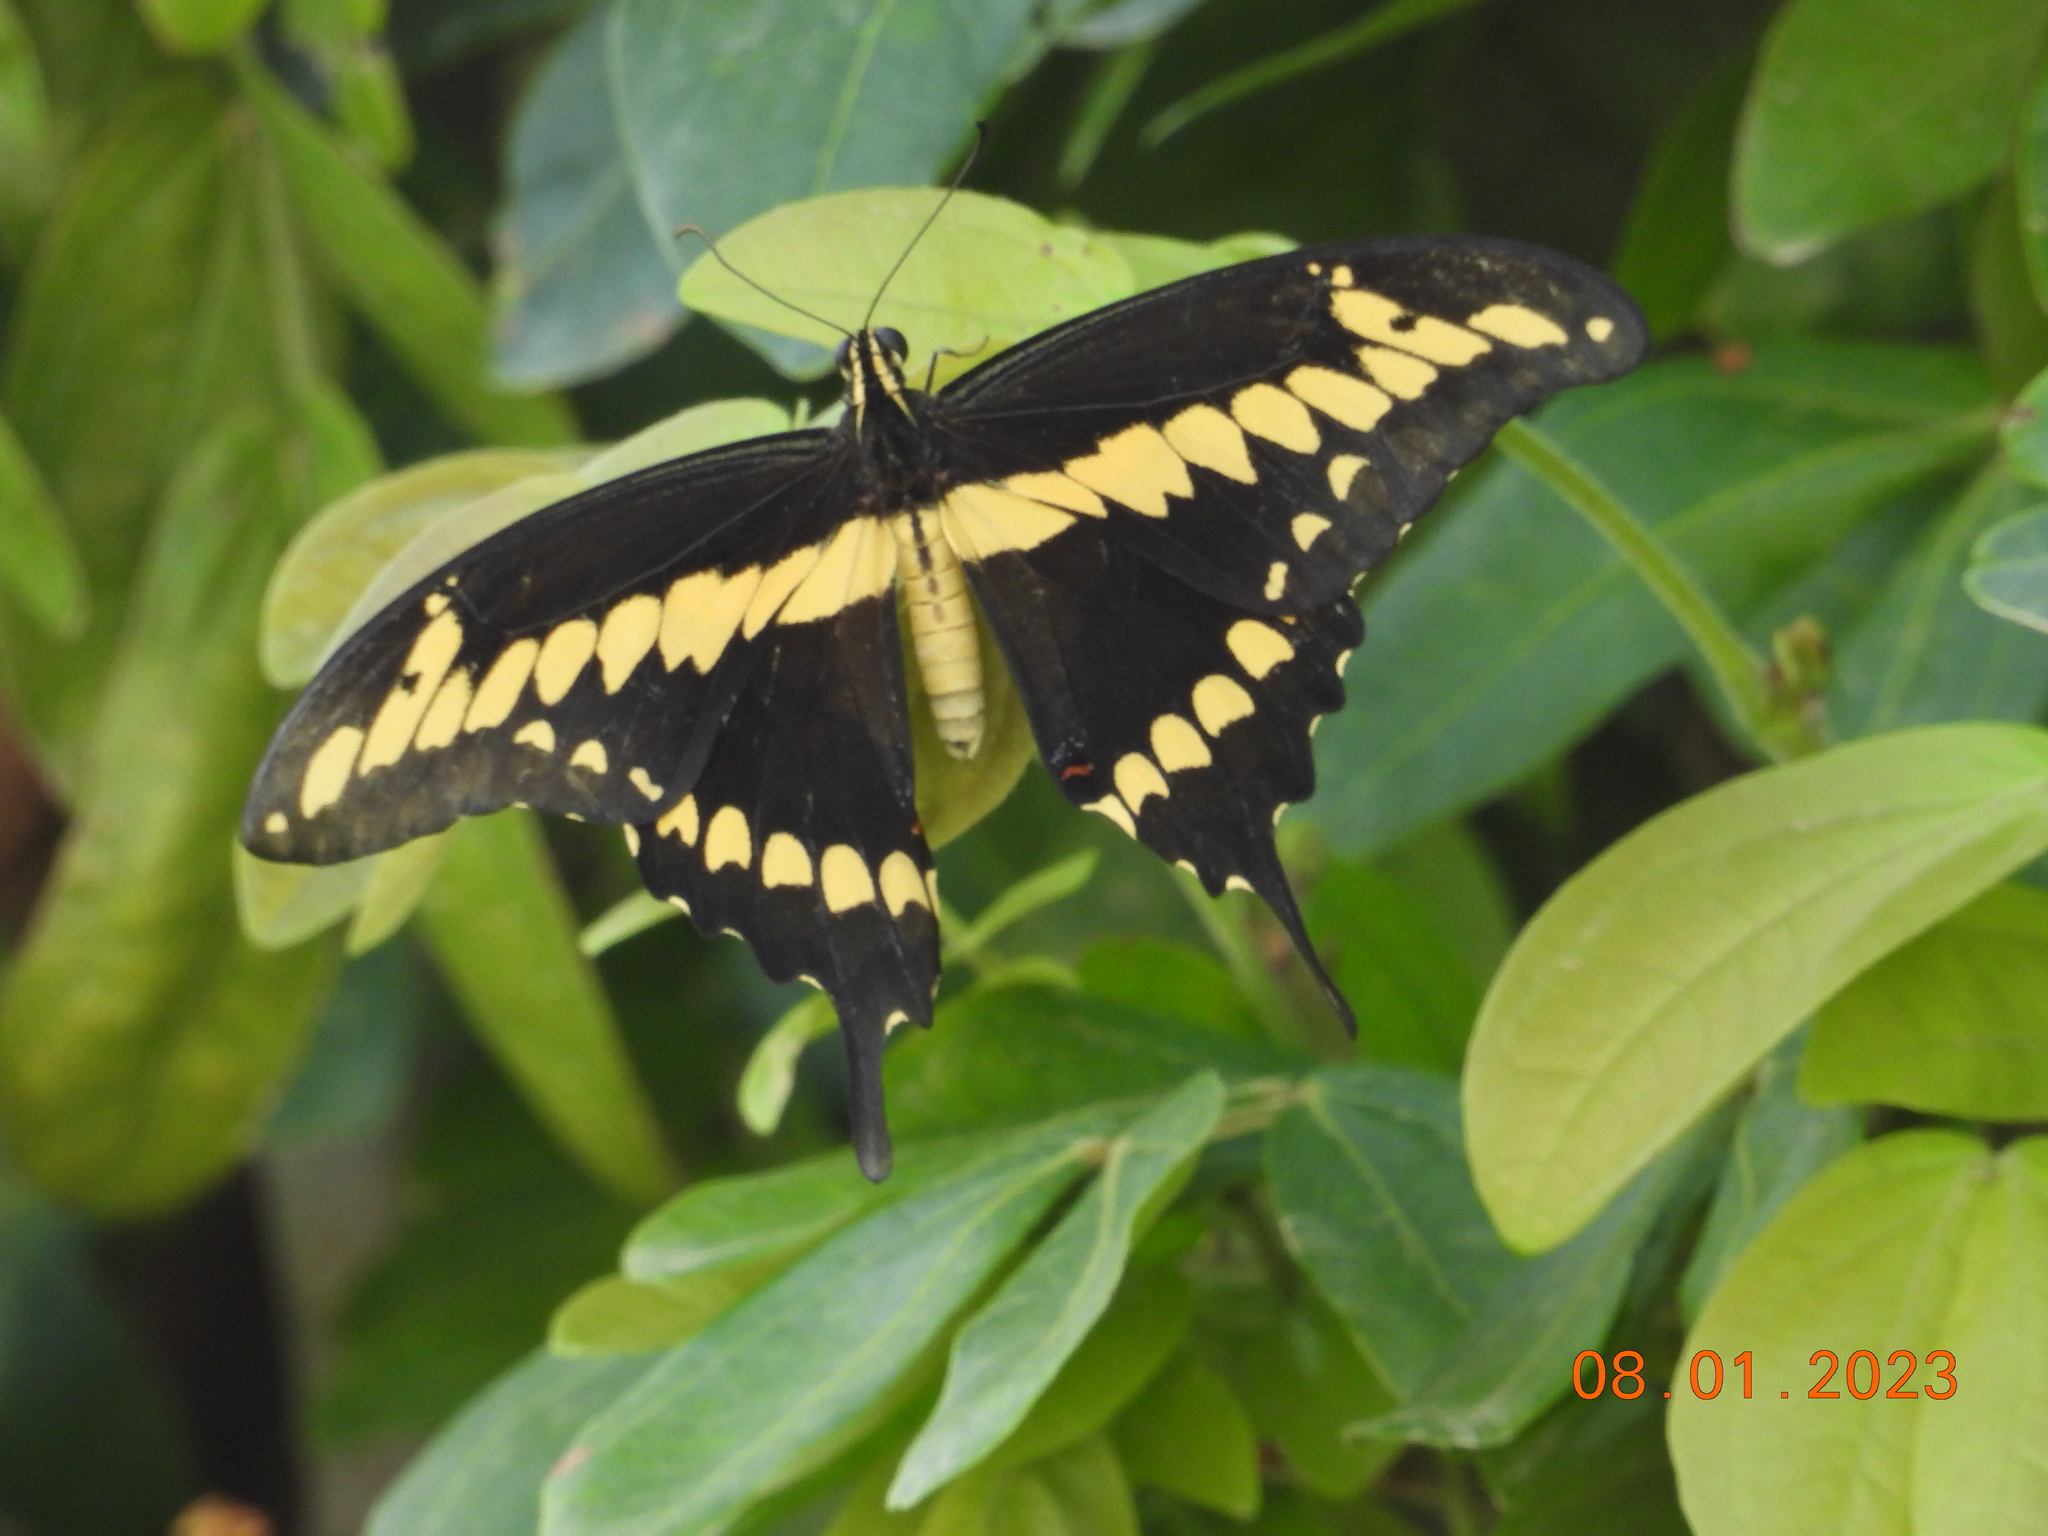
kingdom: Animalia
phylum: Arthropoda
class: Insecta
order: Lepidoptera
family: Papilionidae
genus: Papilio
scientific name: Papilio rumiko
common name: Western giant swallowtail
